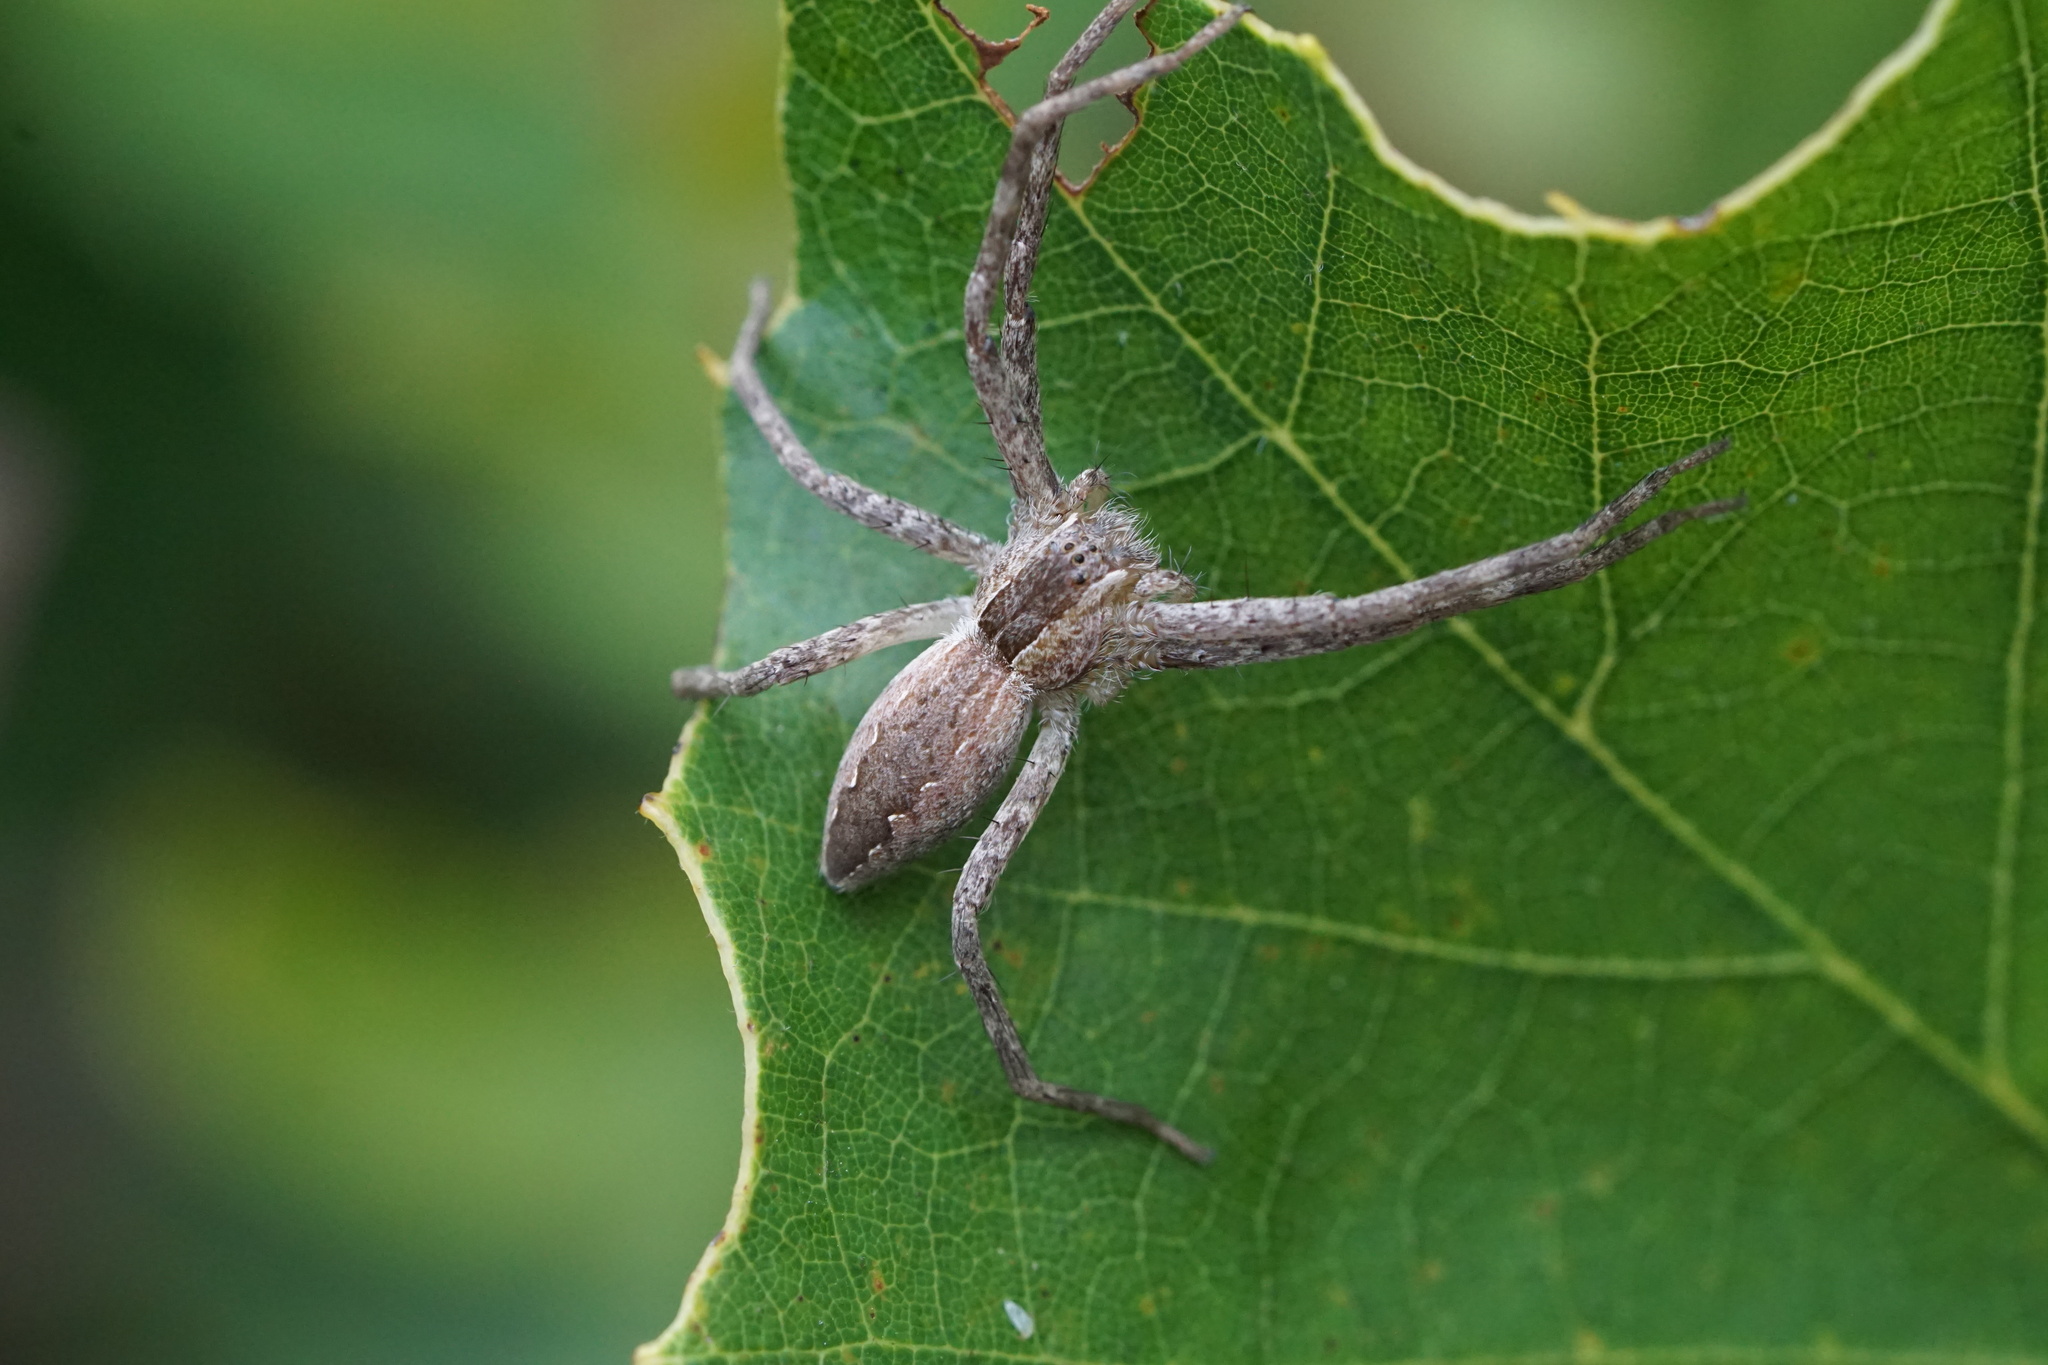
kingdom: Animalia
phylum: Arthropoda
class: Arachnida
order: Araneae
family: Pisauridae
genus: Pisaurina
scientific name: Pisaurina mira
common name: American nursery web spider
